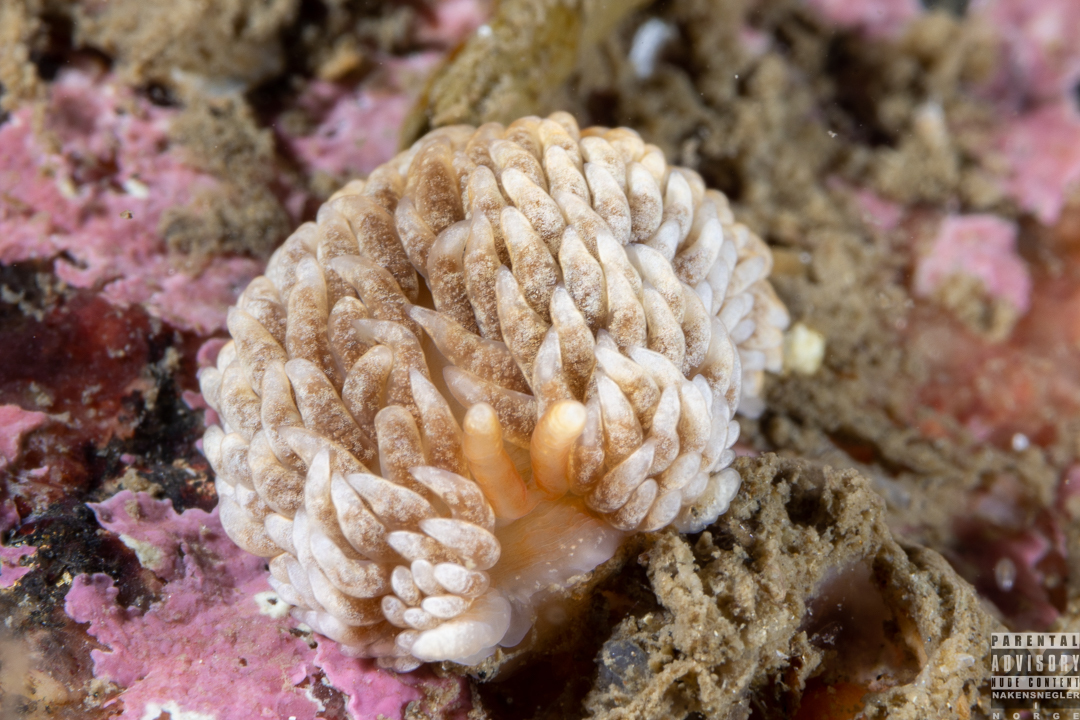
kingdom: Animalia
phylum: Mollusca
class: Gastropoda
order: Nudibranchia
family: Aeolidiidae
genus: Aeolidiella
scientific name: Aeolidiella glauca
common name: Orange-brown aeolid
